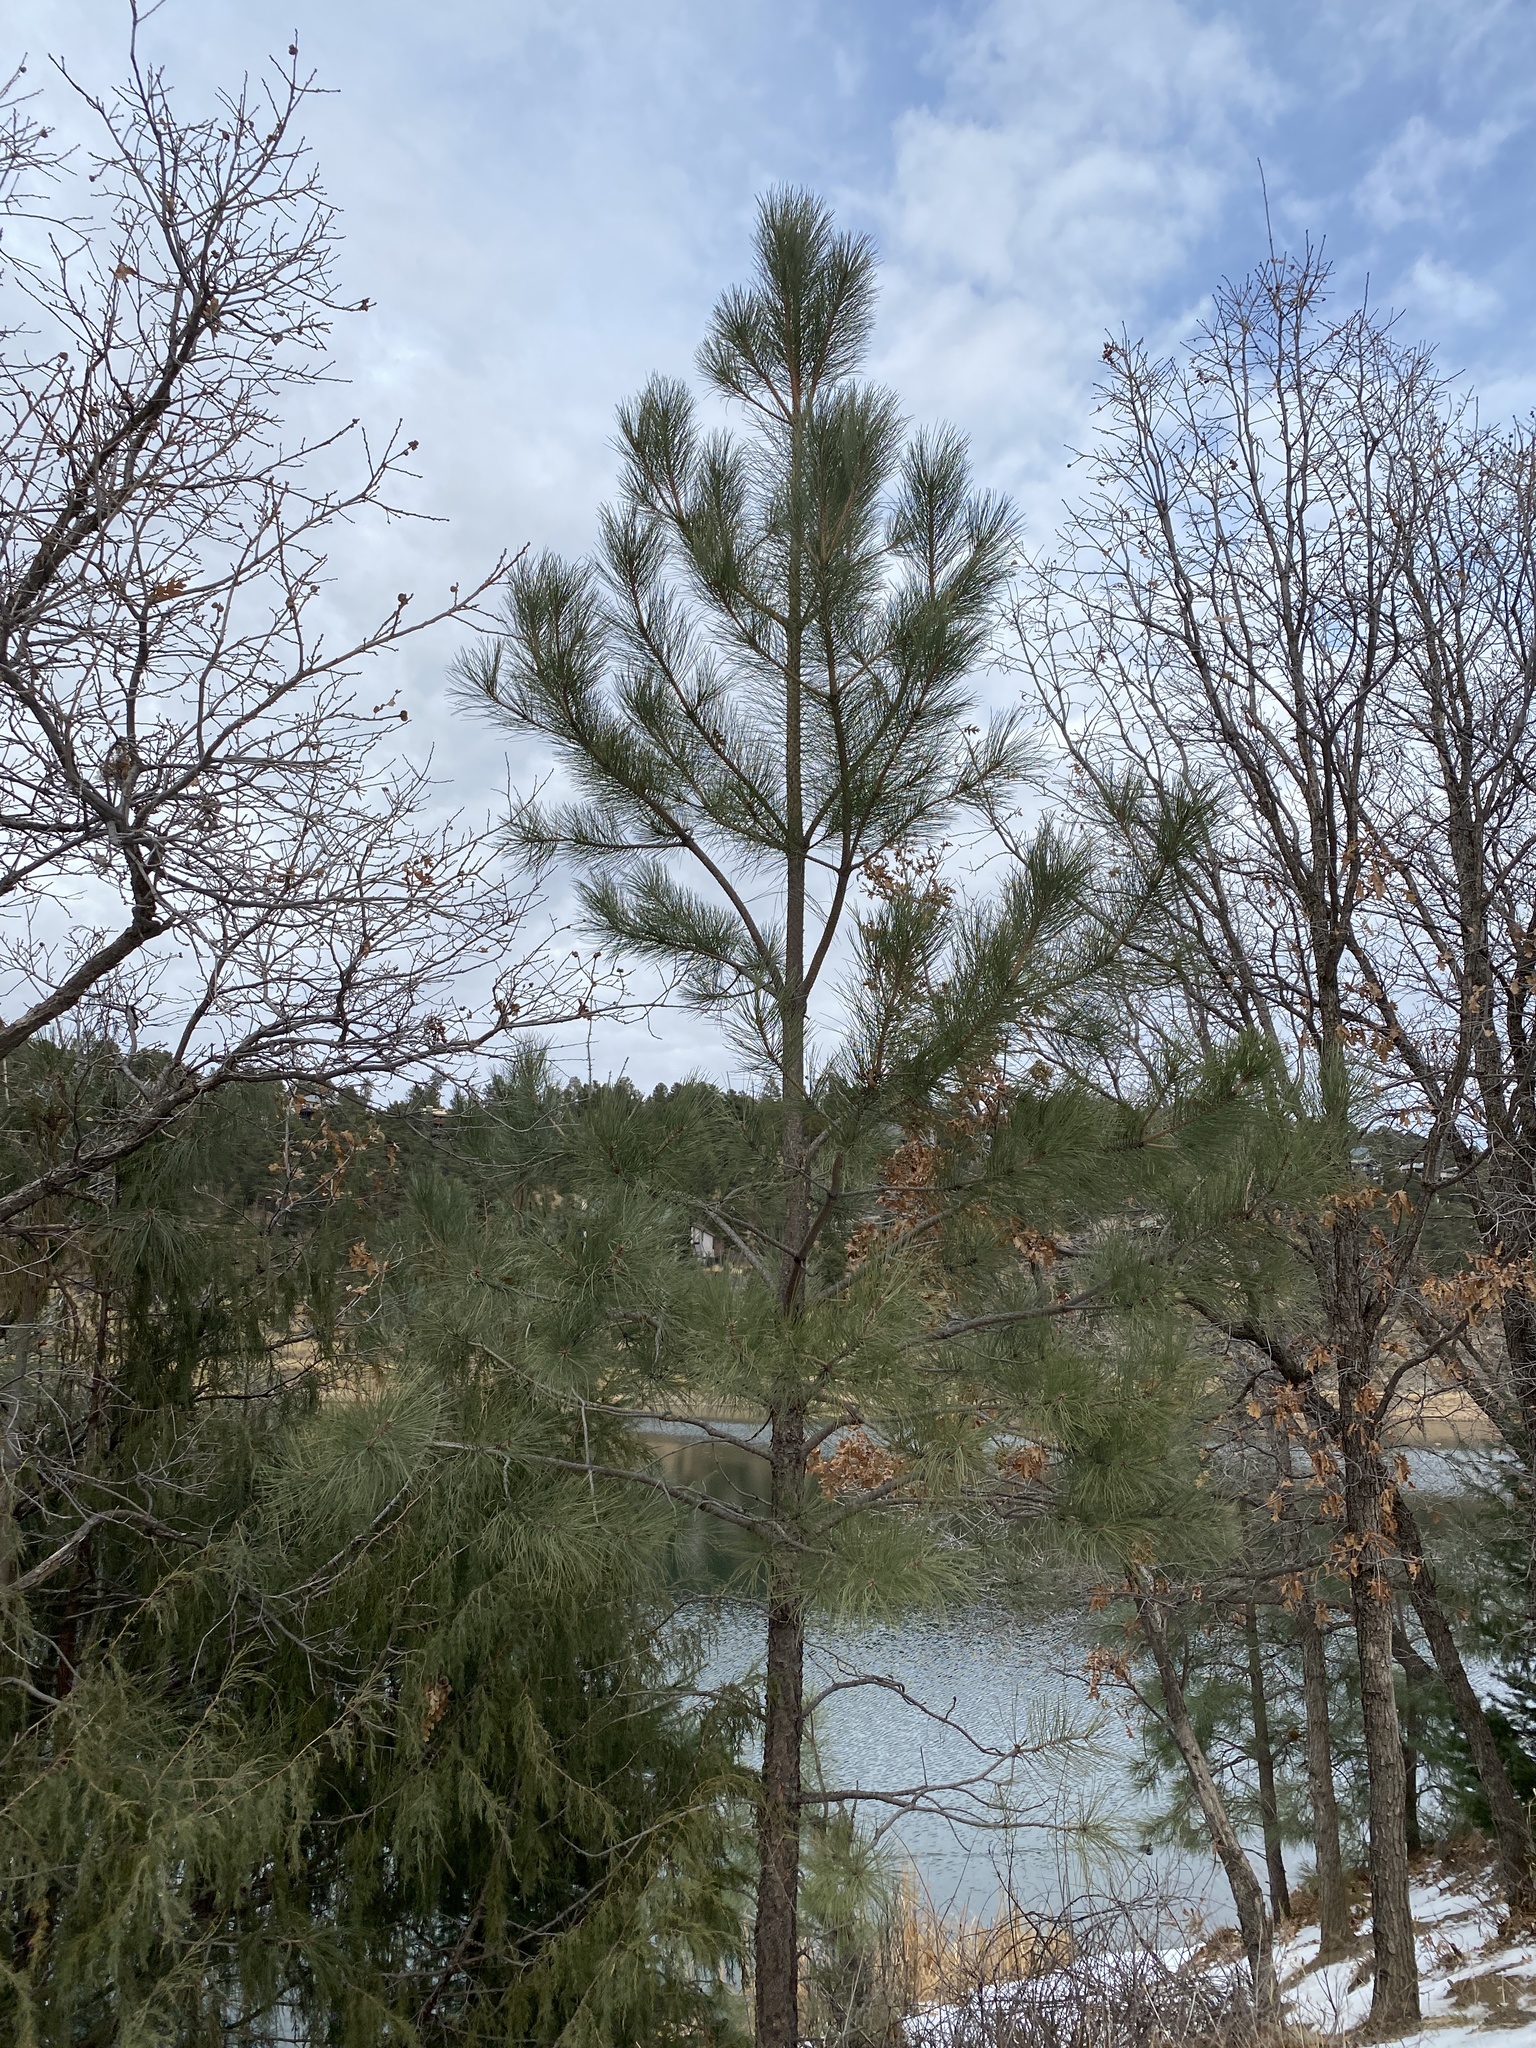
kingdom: Plantae
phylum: Tracheophyta
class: Pinopsida
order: Pinales
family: Pinaceae
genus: Pinus
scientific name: Pinus ponderosa
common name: Western yellow-pine
